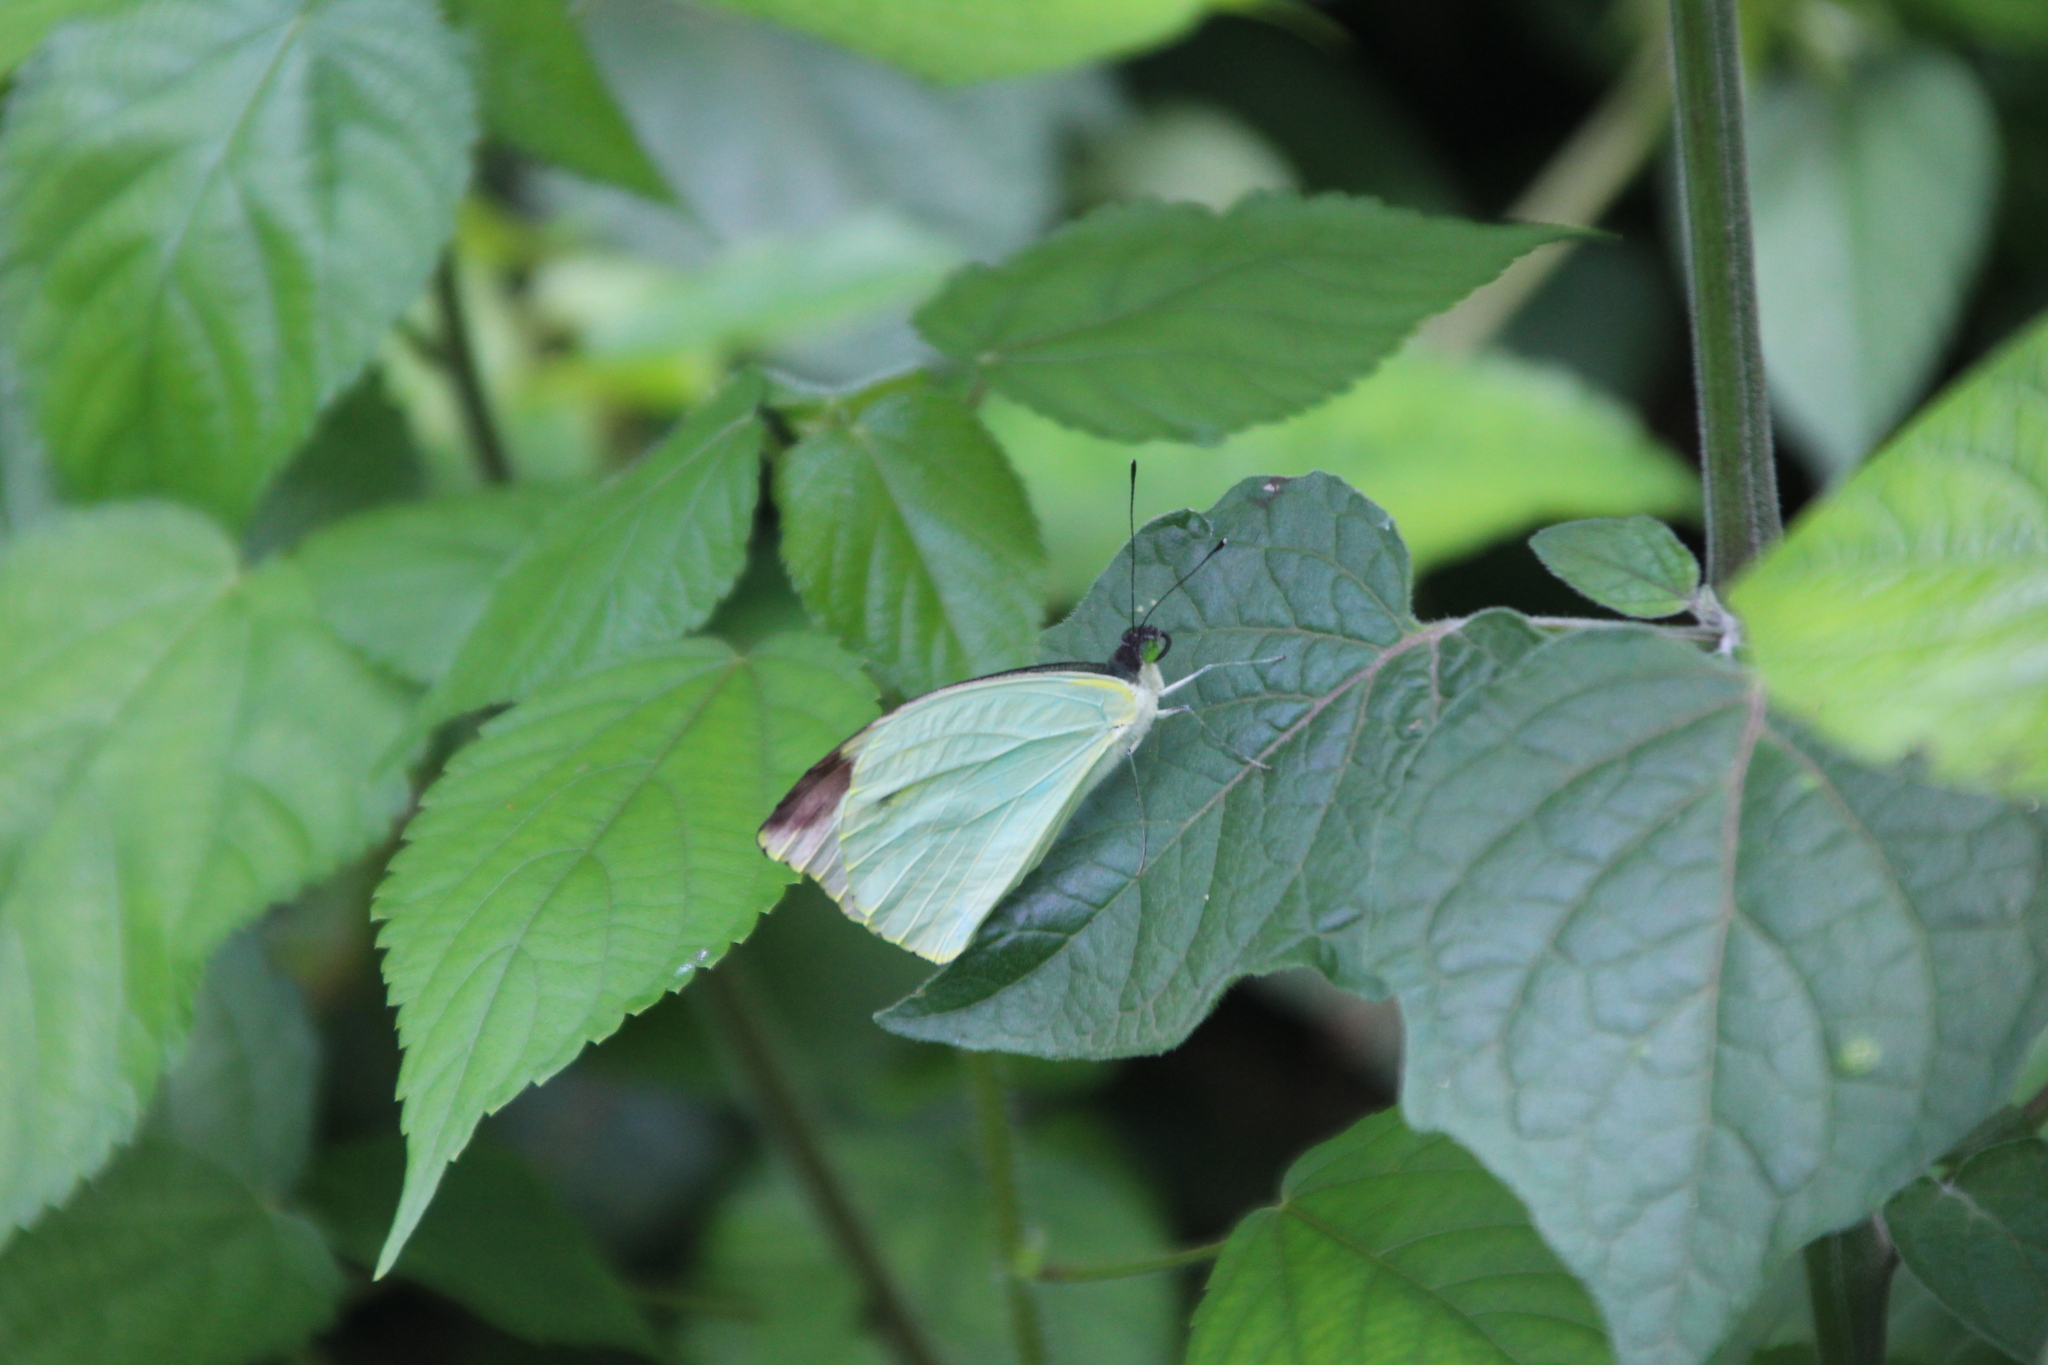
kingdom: Animalia
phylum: Arthropoda
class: Insecta
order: Lepidoptera
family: Pieridae
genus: Nepheronia
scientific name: Nepheronia argia
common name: Large vagrant
